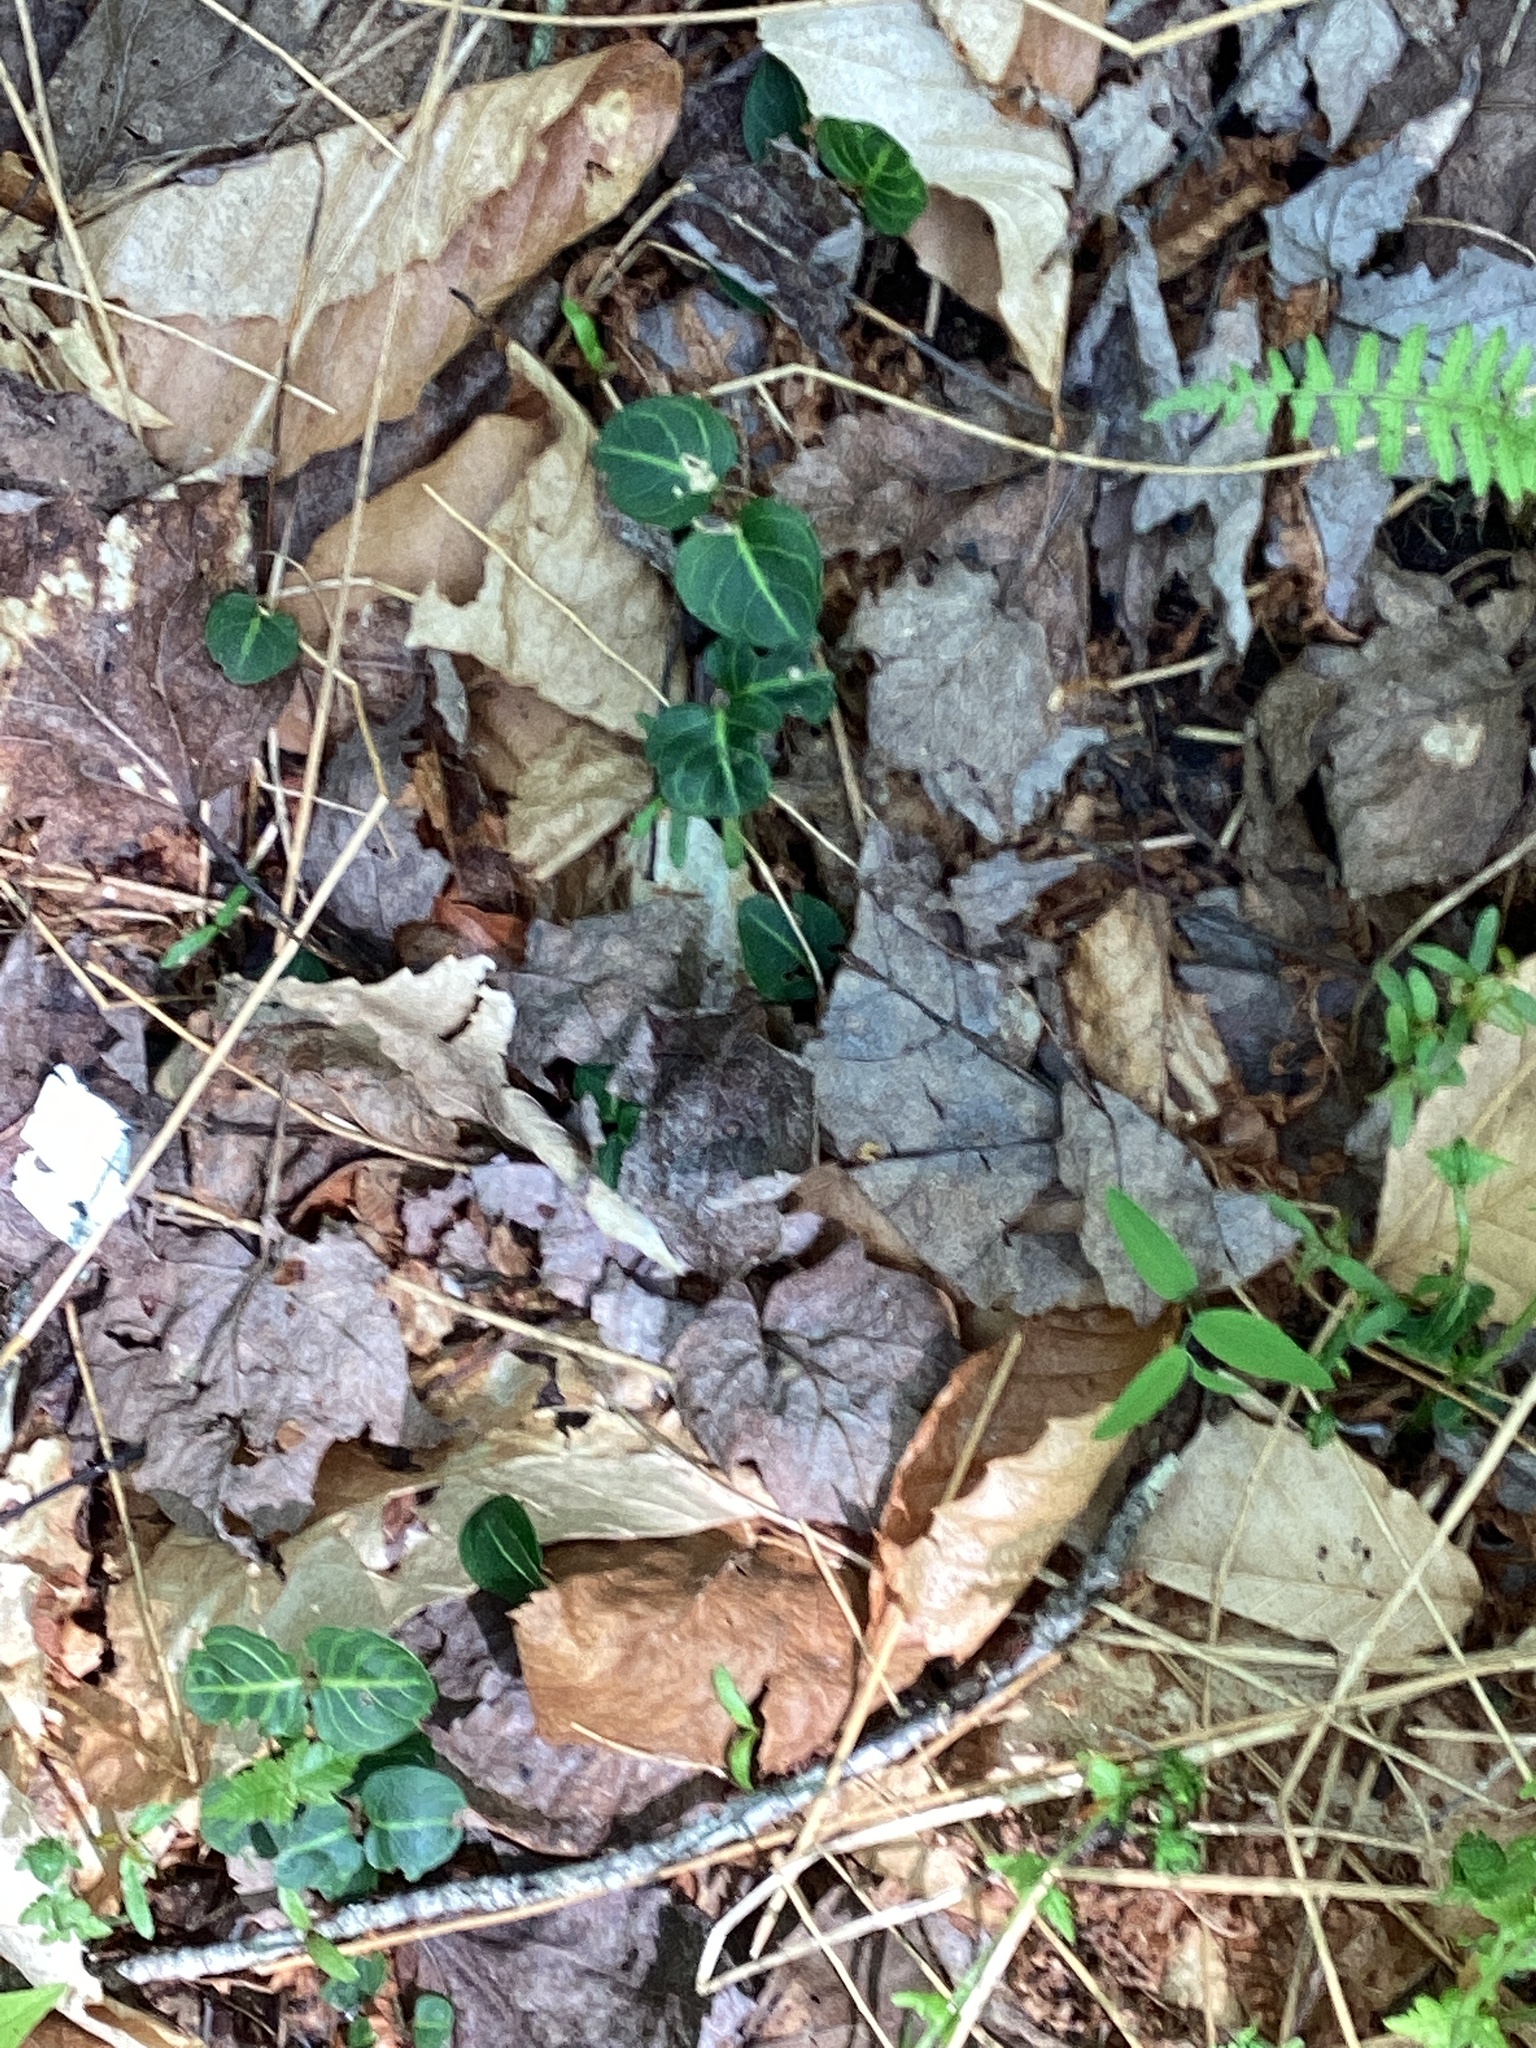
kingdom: Plantae
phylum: Tracheophyta
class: Magnoliopsida
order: Gentianales
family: Rubiaceae
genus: Mitchella
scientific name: Mitchella repens
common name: Partridge-berry
